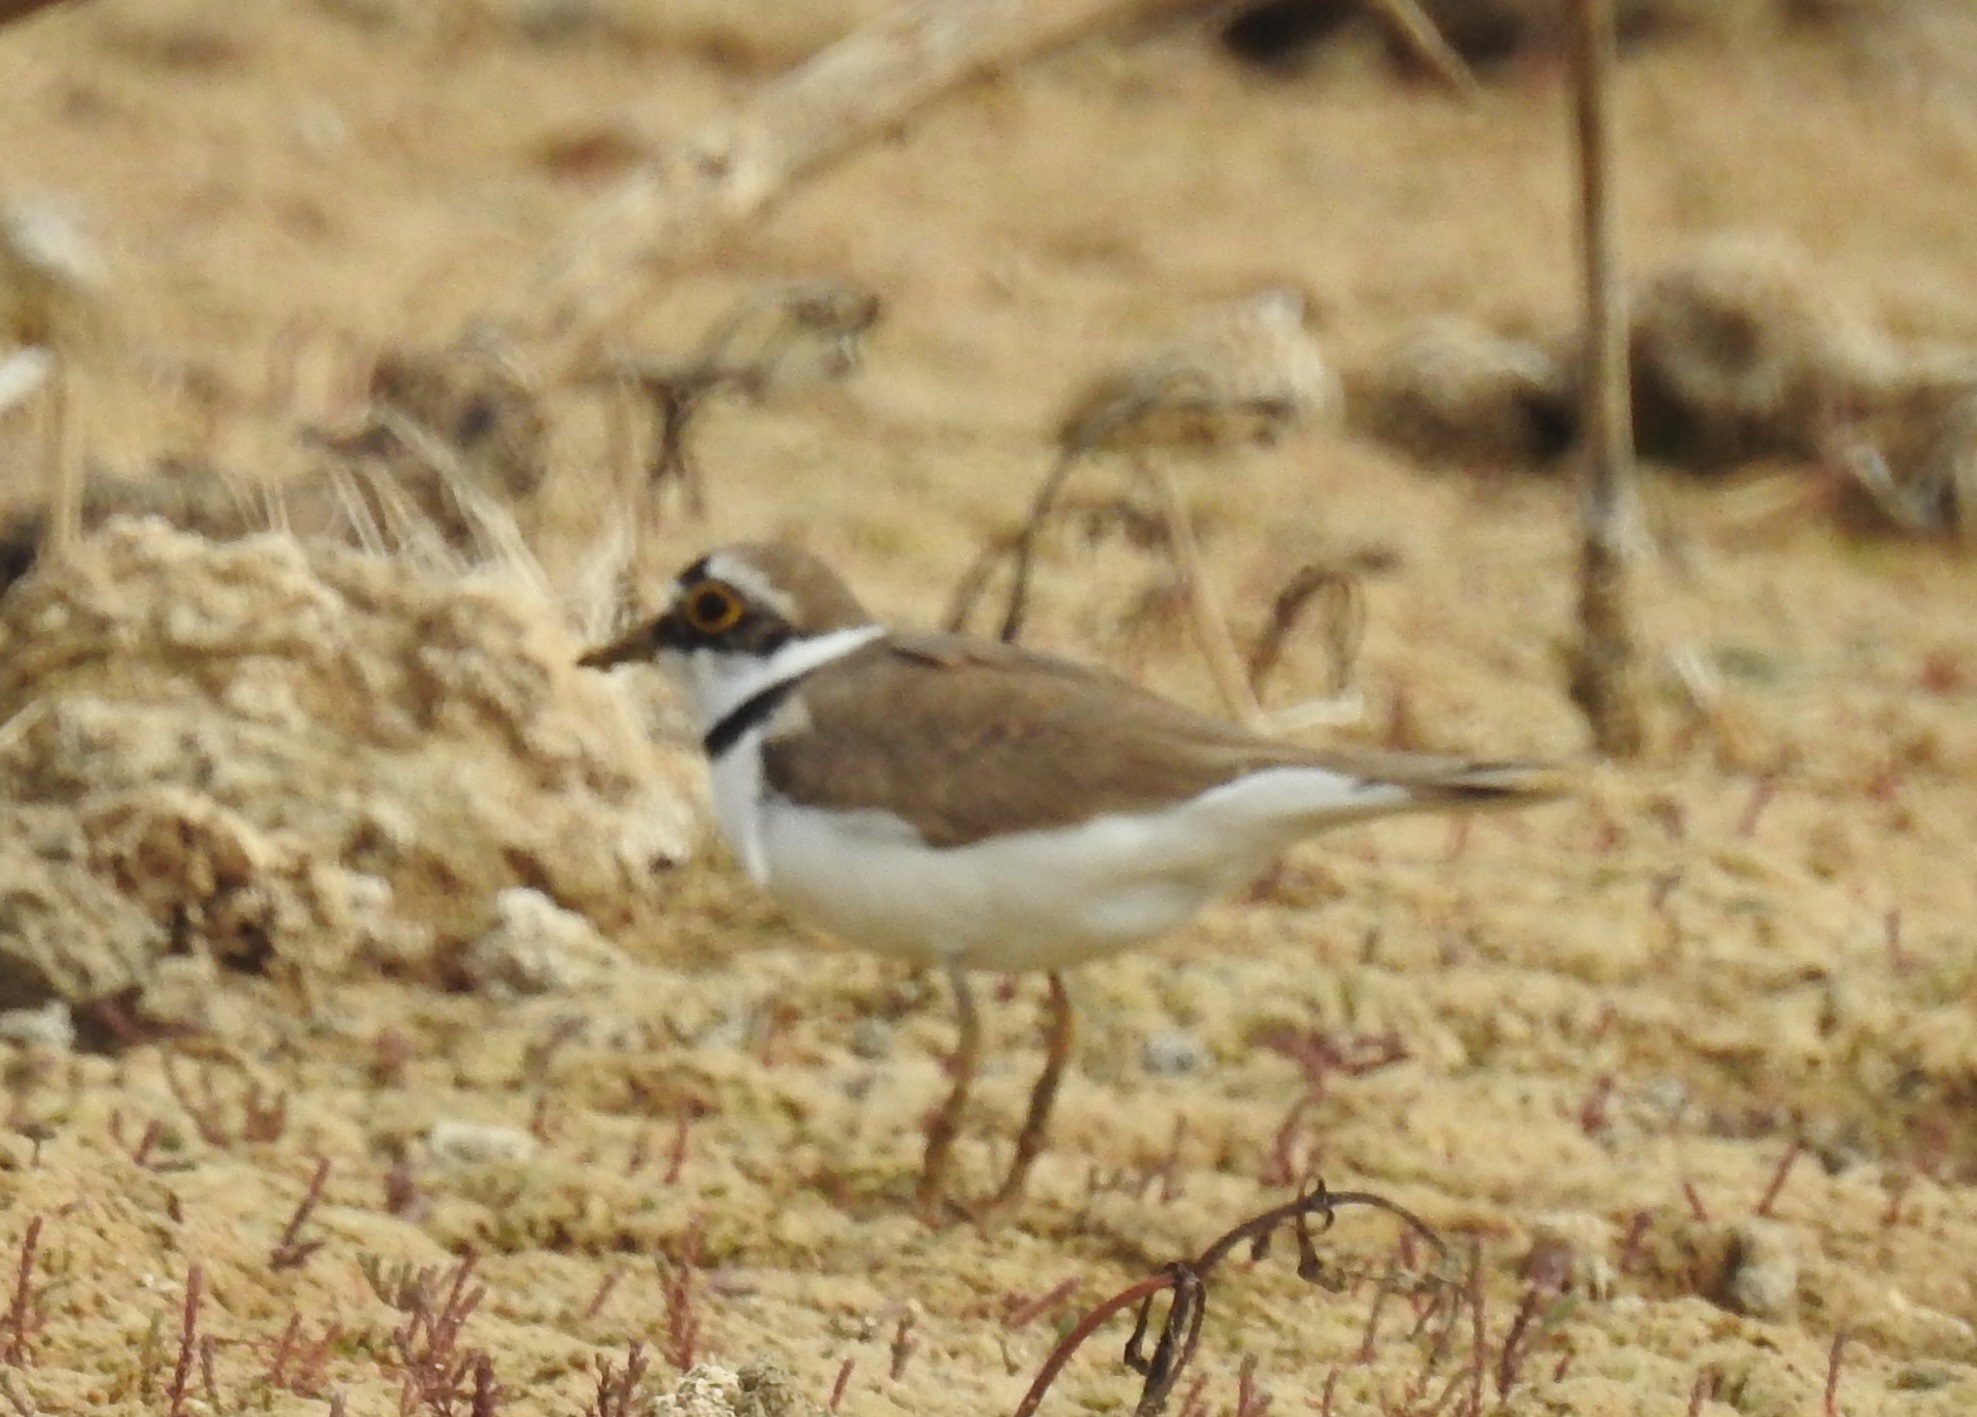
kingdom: Animalia
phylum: Chordata
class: Aves
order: Charadriiformes
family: Charadriidae
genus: Charadrius
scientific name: Charadrius dubius
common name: Little ringed plover
